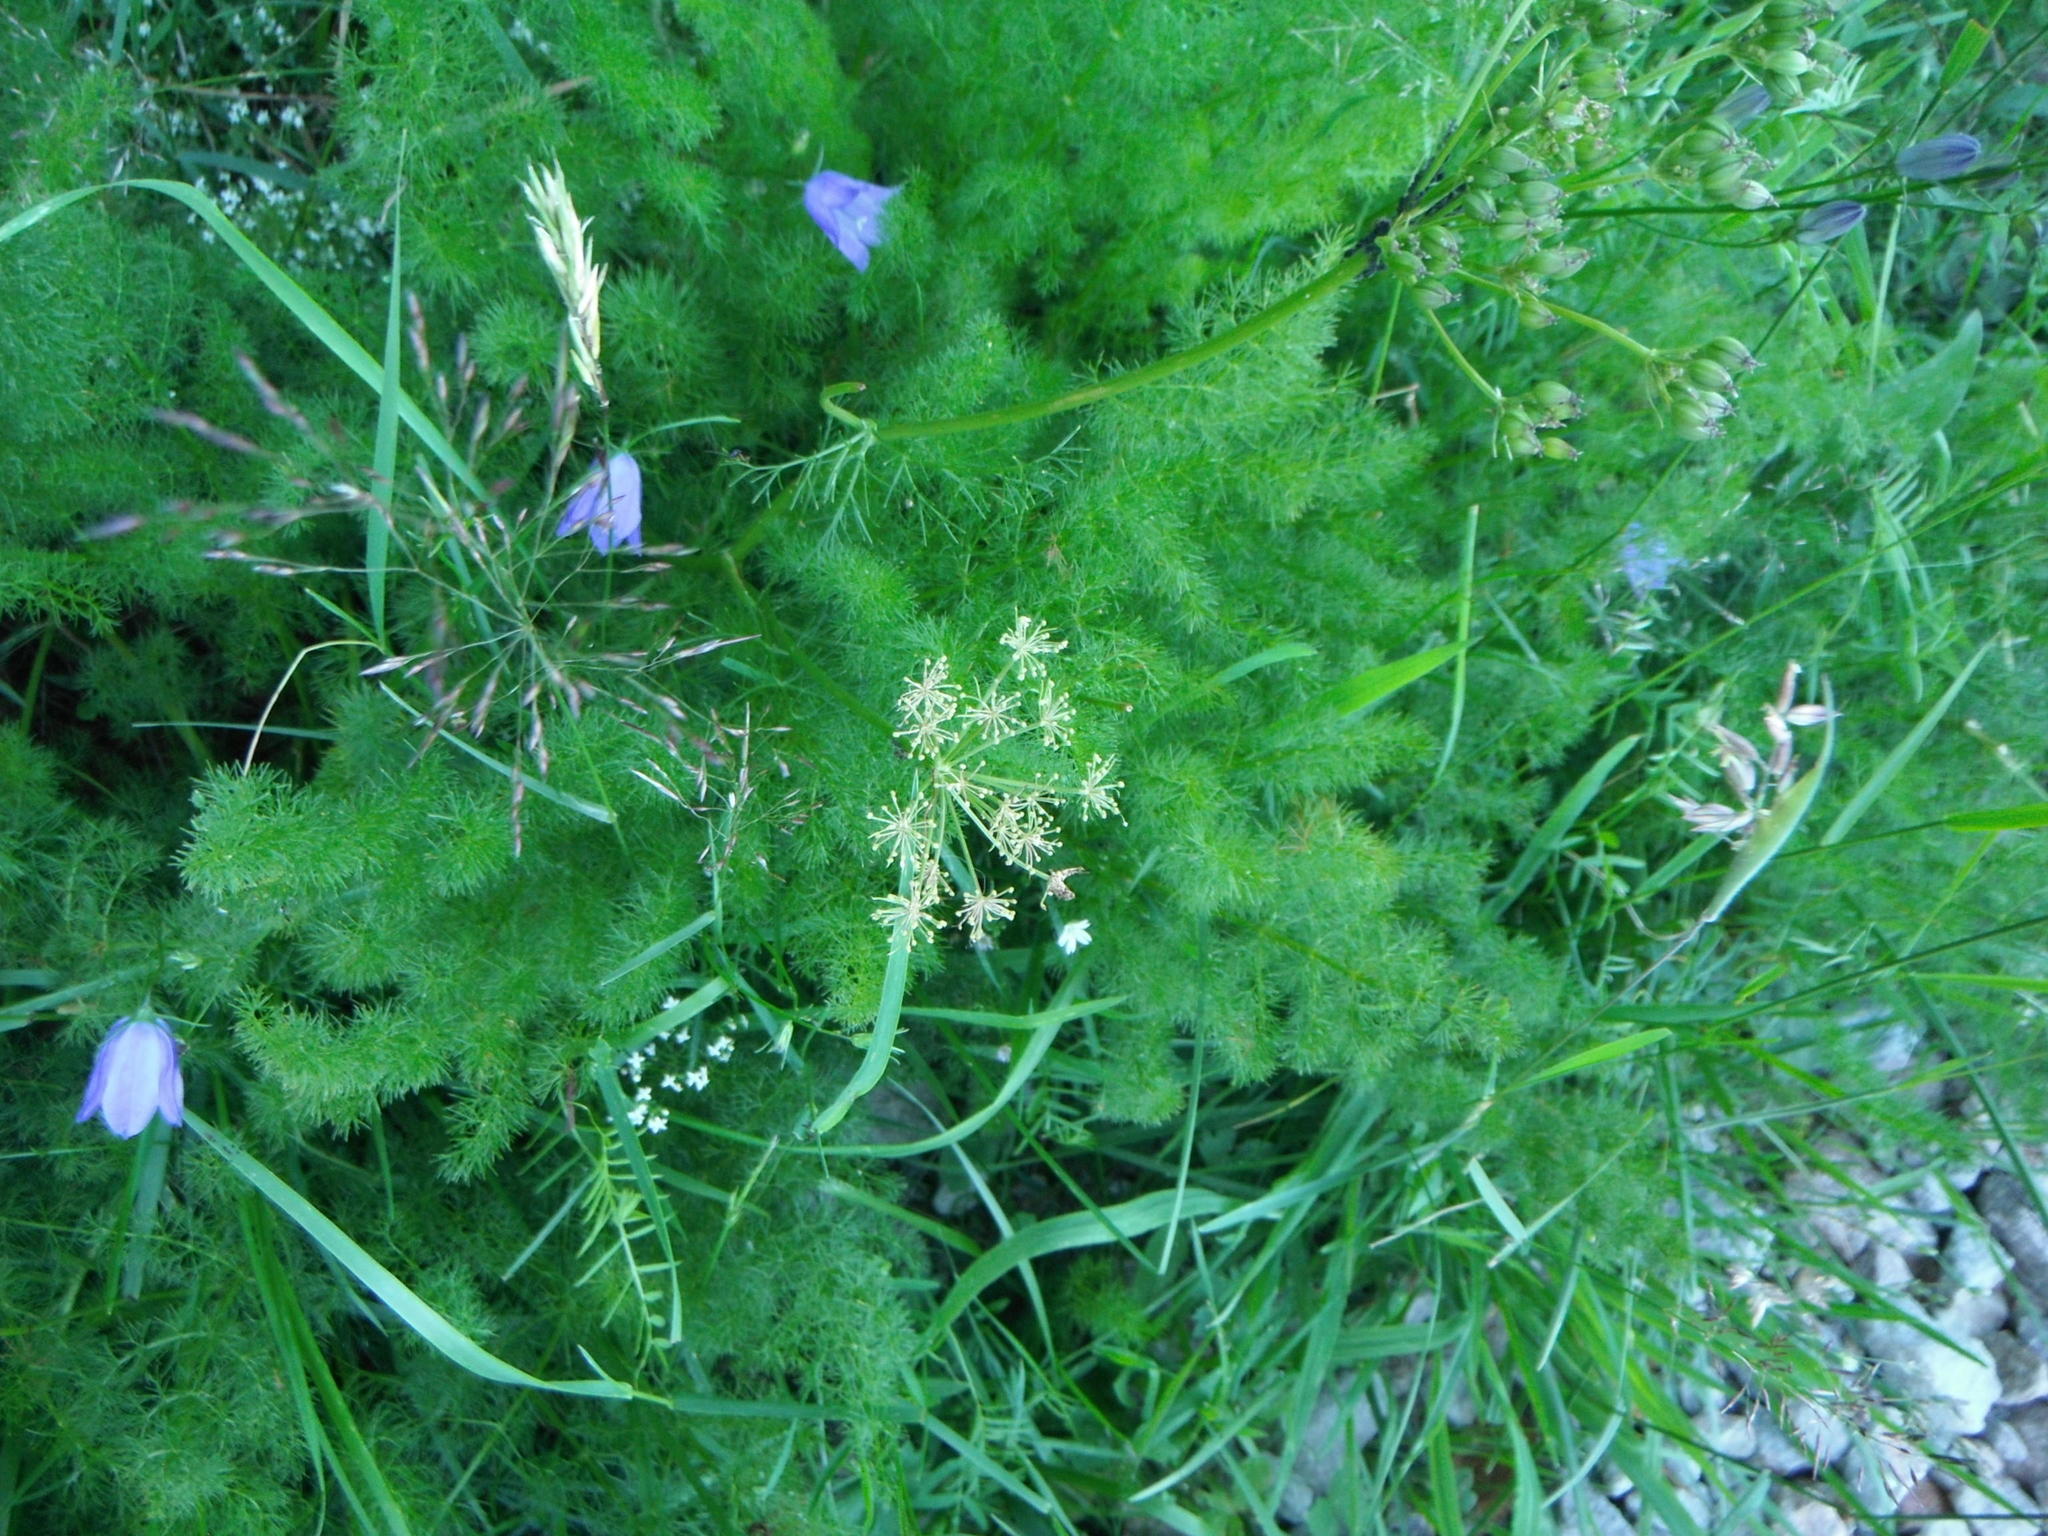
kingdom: Plantae
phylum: Tracheophyta
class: Magnoliopsida
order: Apiales
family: Apiaceae
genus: Meum
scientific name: Meum athamanticum
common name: Spignel
